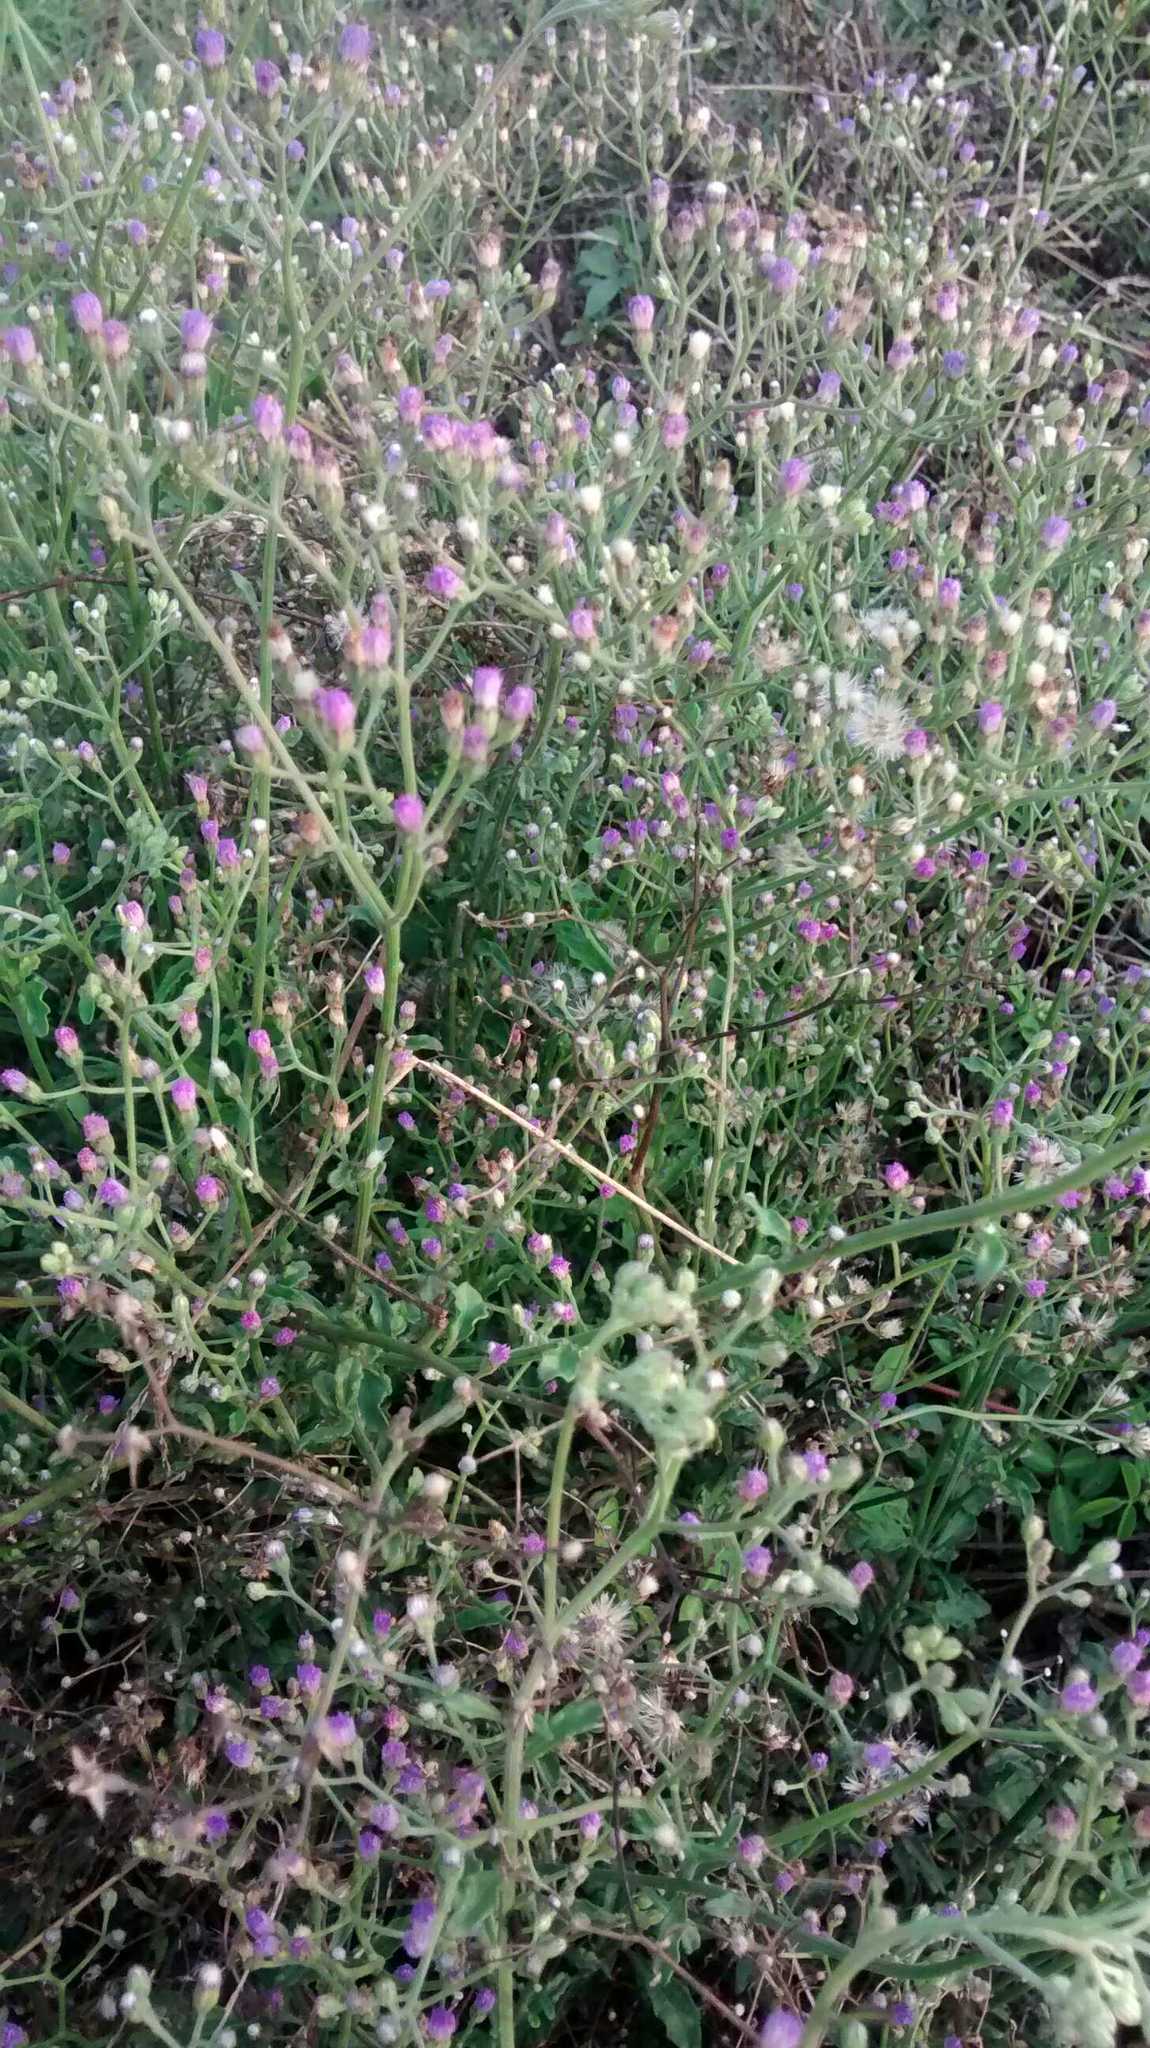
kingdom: Plantae
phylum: Tracheophyta
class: Magnoliopsida
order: Asterales
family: Asteraceae
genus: Cyanthillium
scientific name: Cyanthillium cinereum
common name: Little ironweed
